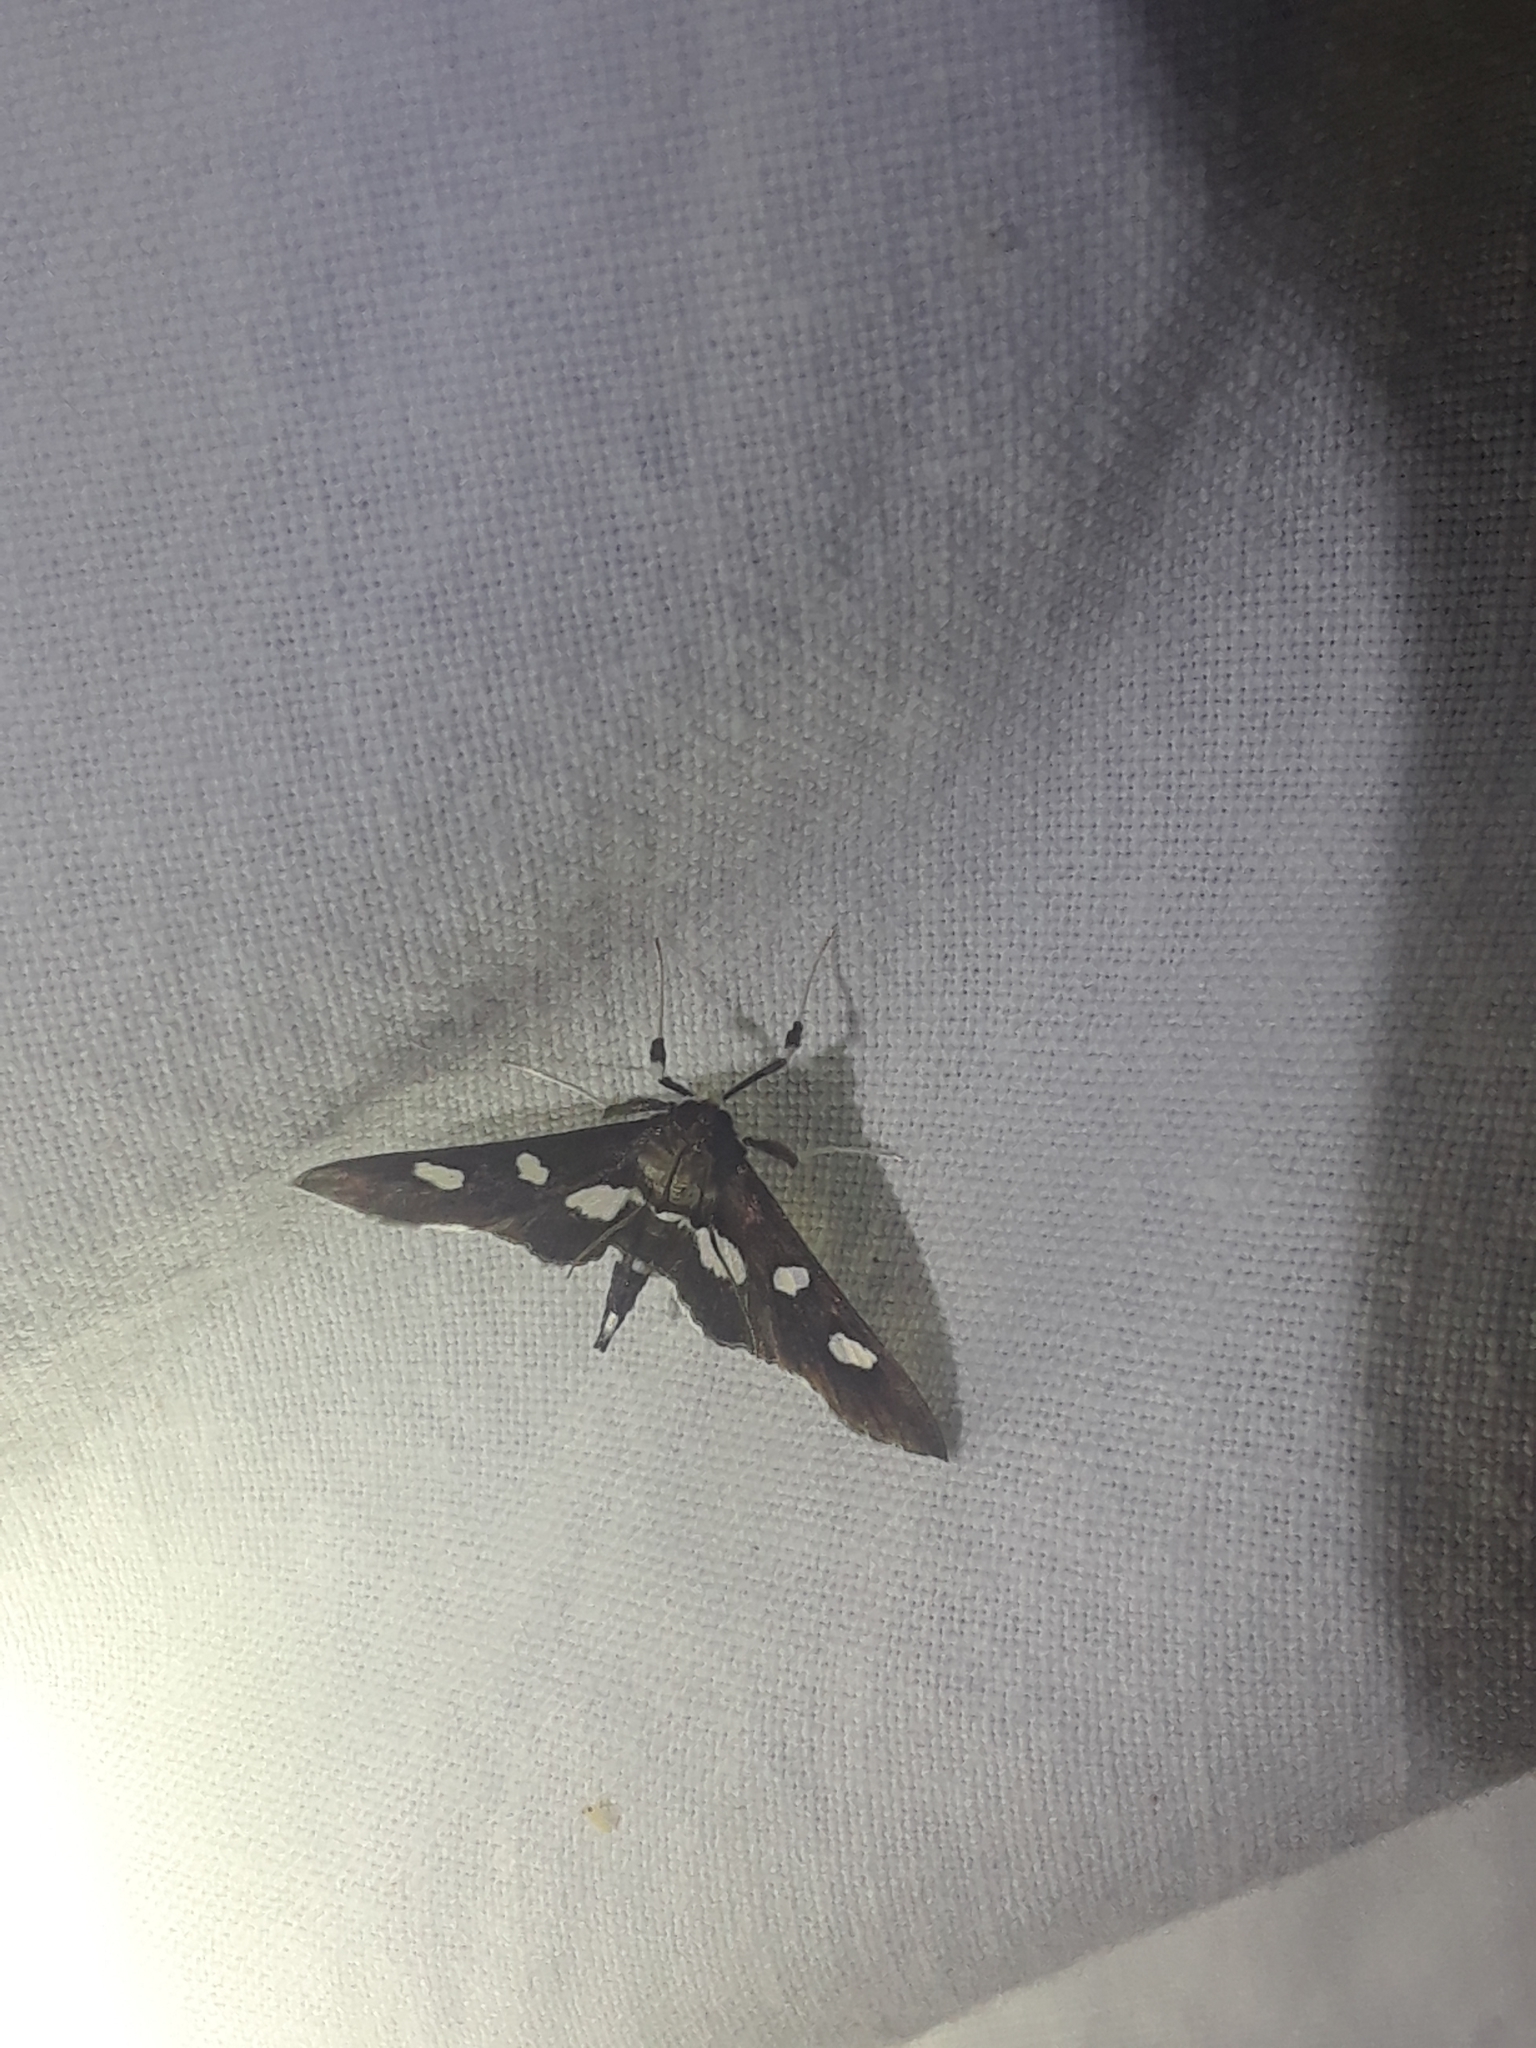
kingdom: Animalia
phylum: Arthropoda
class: Insecta
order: Lepidoptera
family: Crambidae
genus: Desmia
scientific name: Desmia
